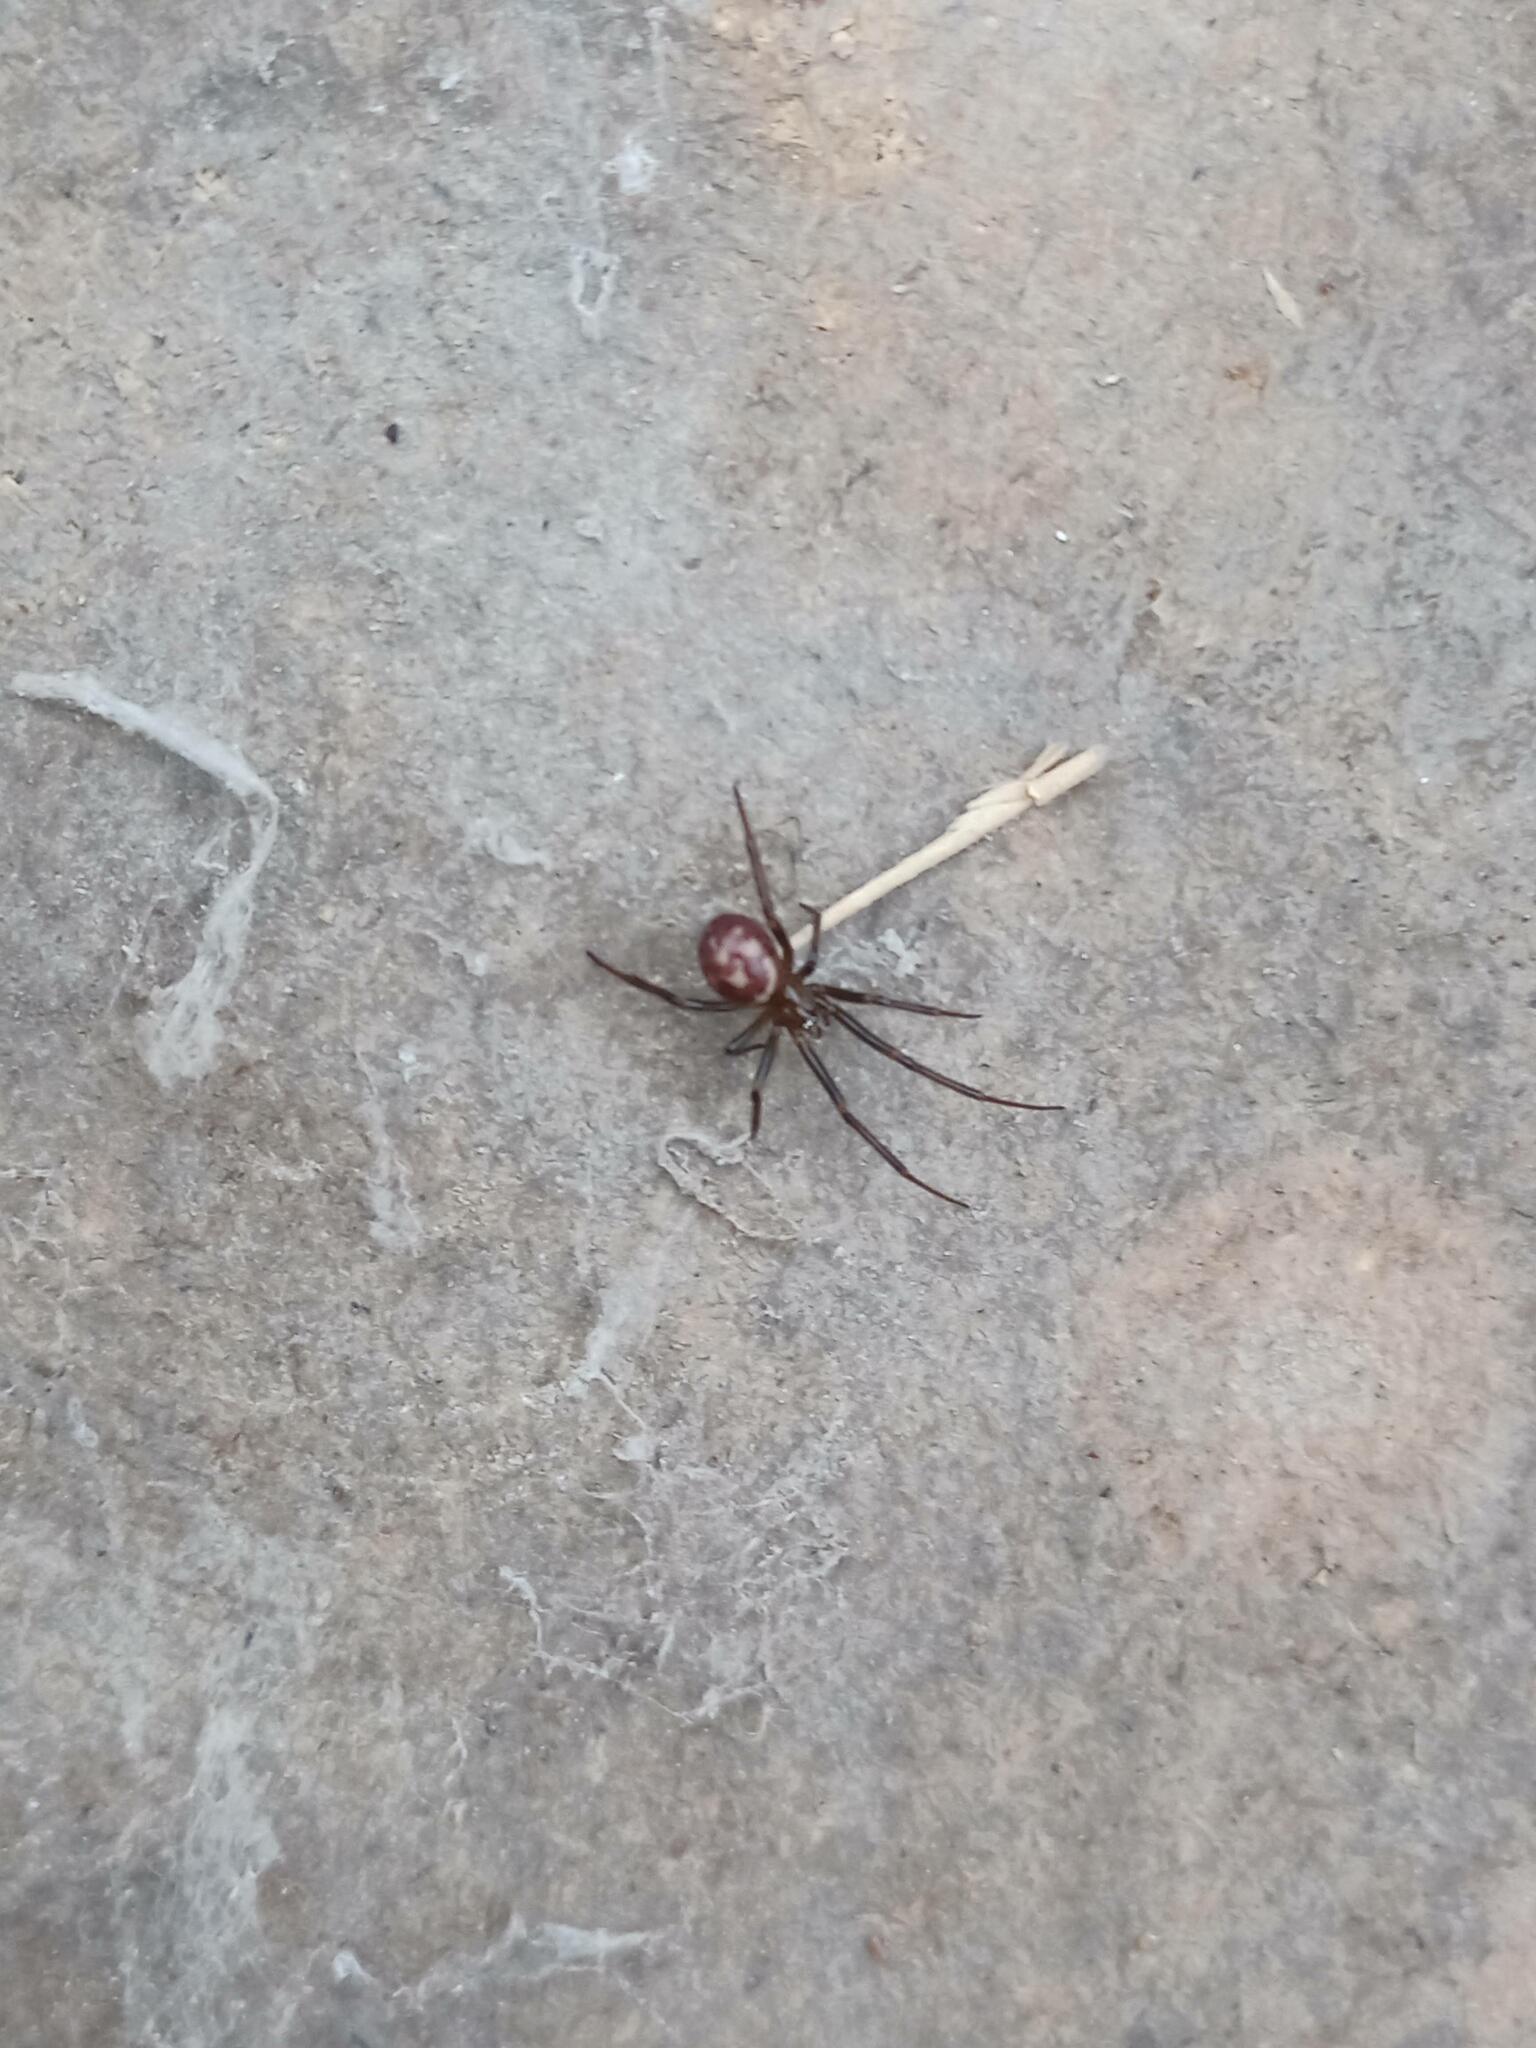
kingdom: Animalia
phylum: Arthropoda
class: Arachnida
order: Araneae
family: Theridiidae
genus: Steatoda
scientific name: Steatoda grossa
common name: False black widow
